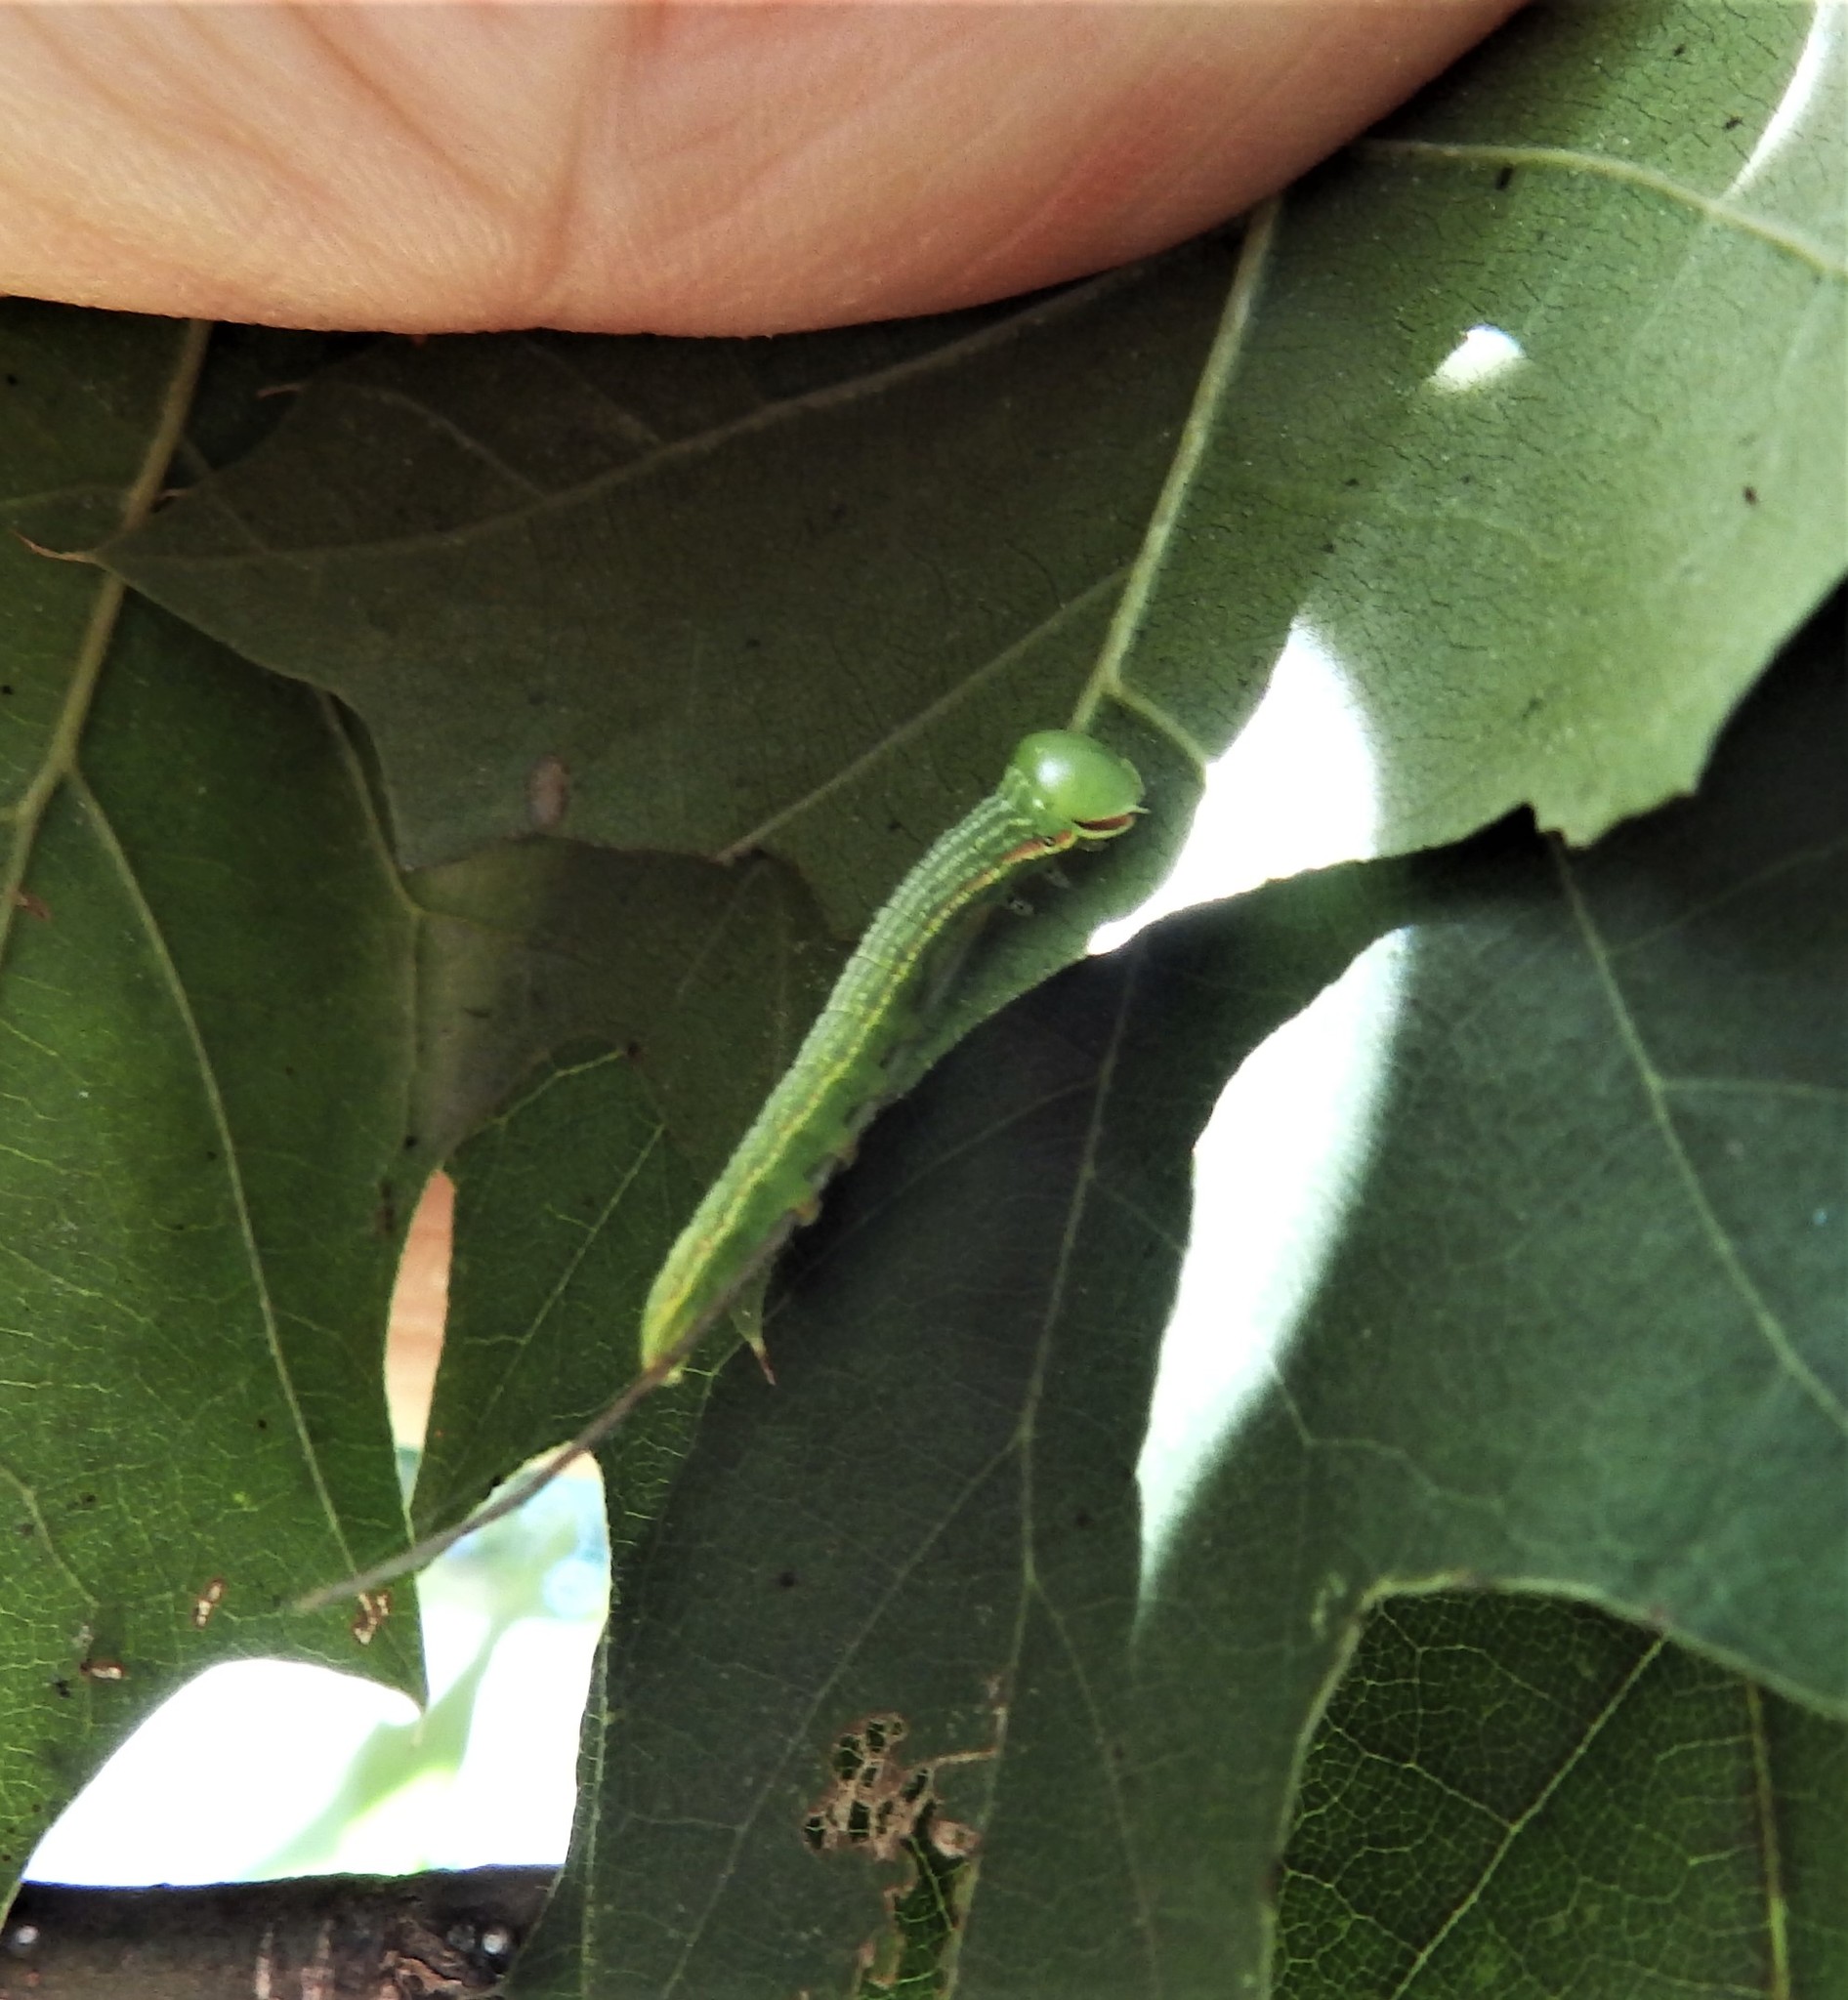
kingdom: Animalia
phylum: Arthropoda
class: Insecta
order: Lepidoptera
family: Notodontidae
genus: Peridea
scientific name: Peridea angulosa
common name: Angulose prominent
